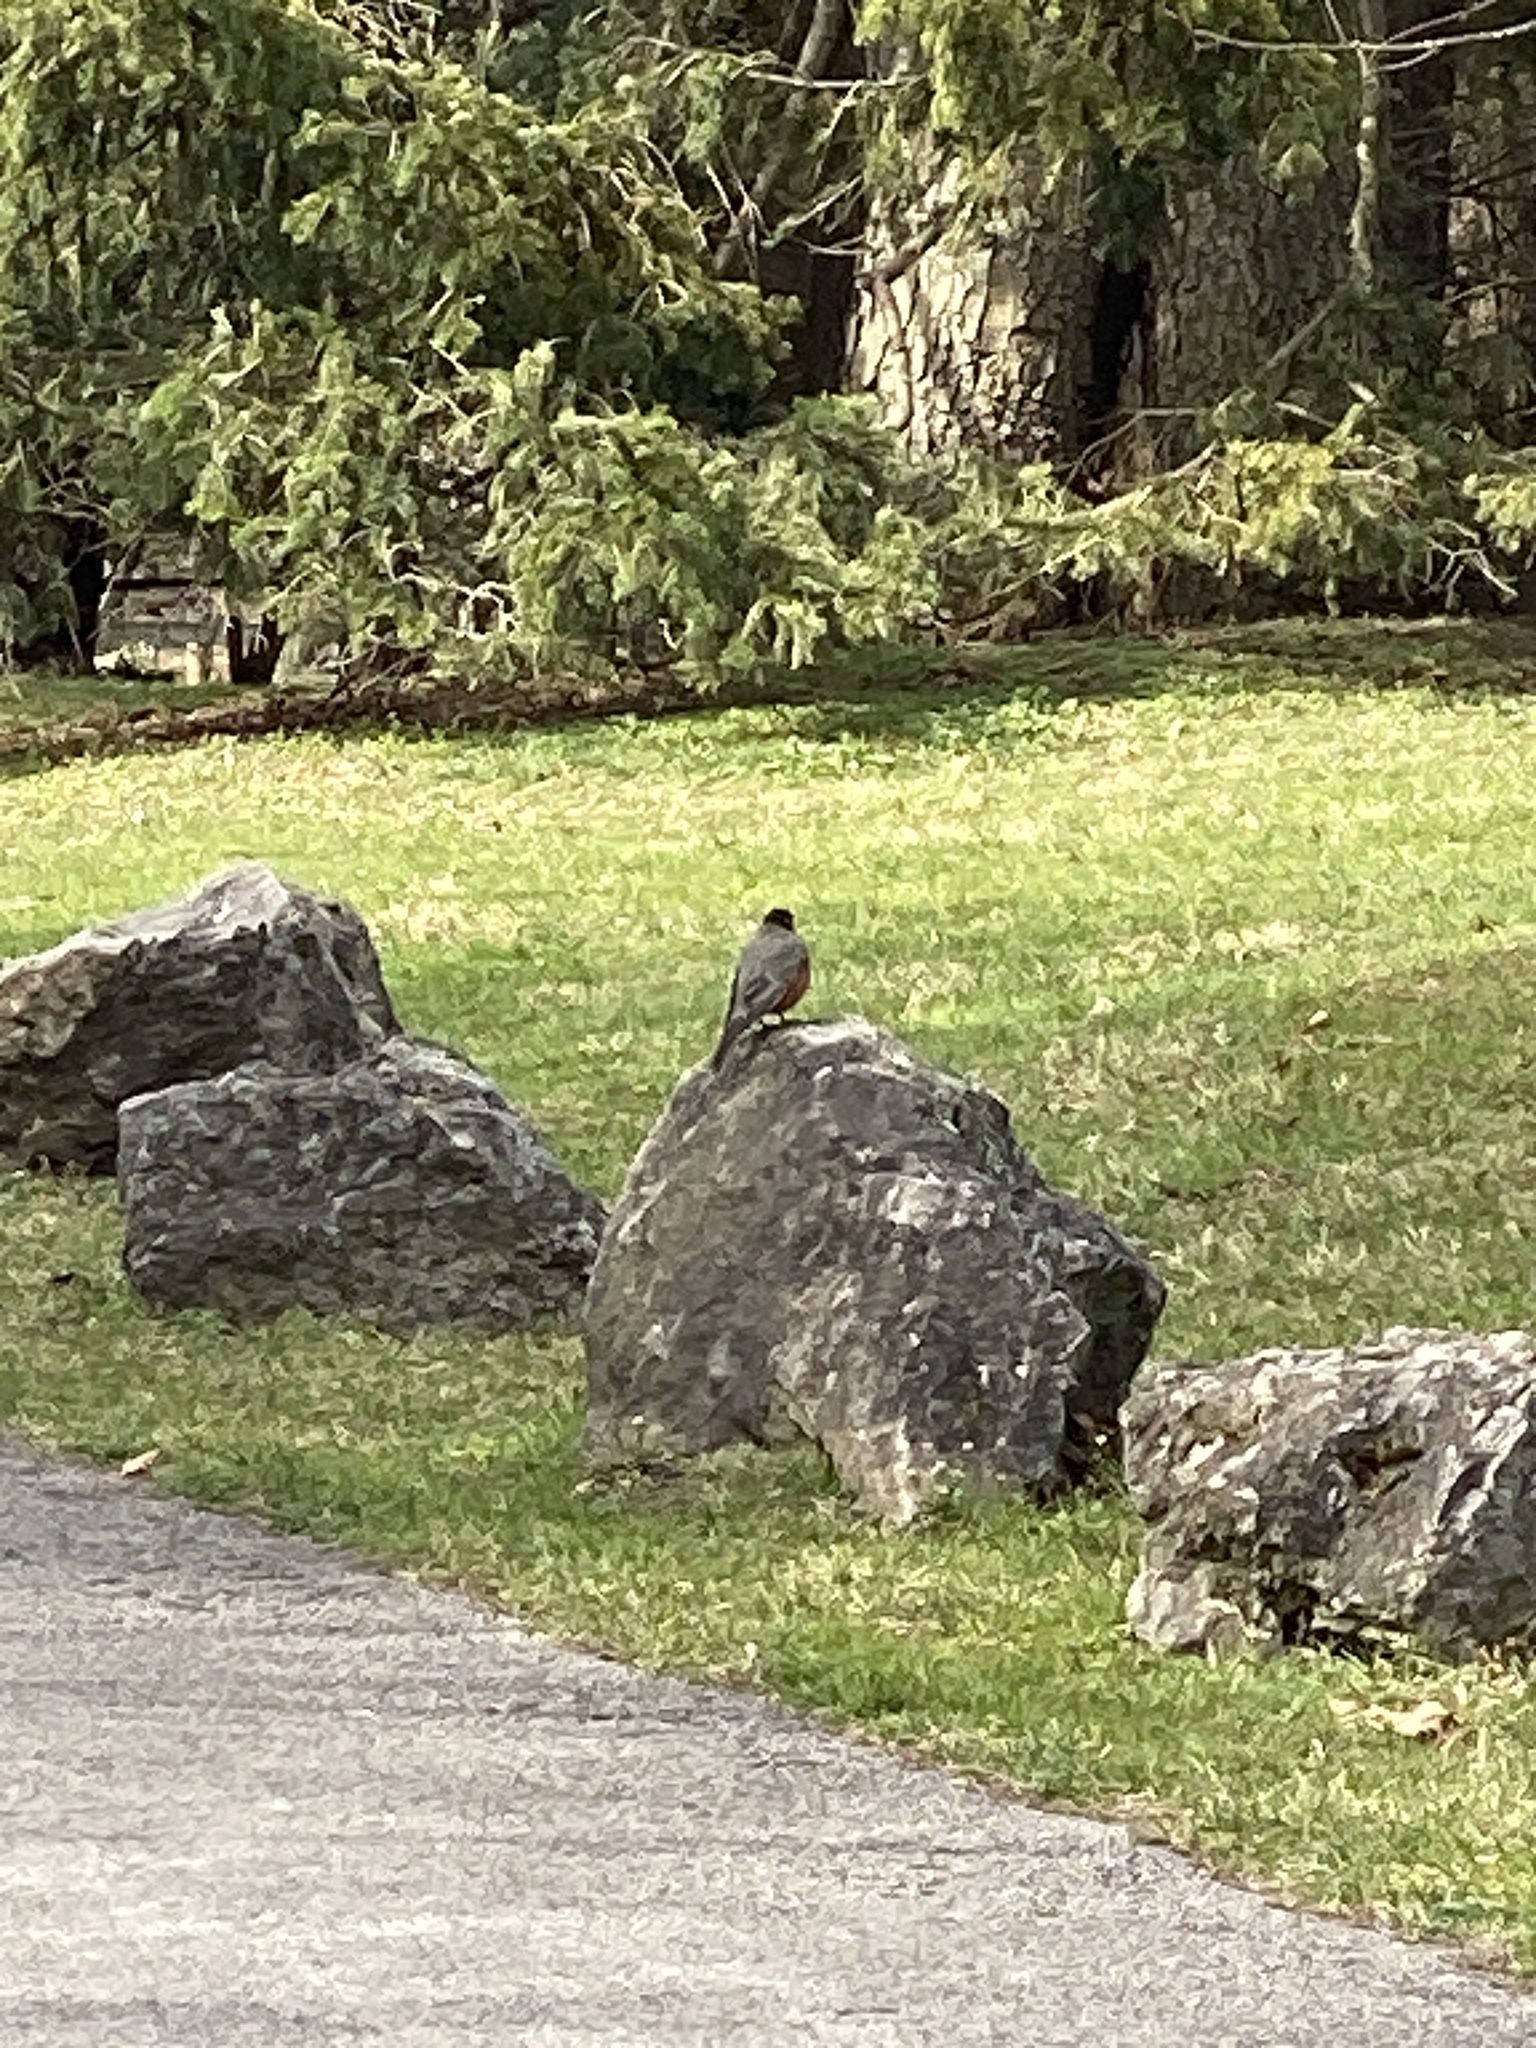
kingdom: Animalia
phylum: Chordata
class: Aves
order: Passeriformes
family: Turdidae
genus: Turdus
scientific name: Turdus migratorius
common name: American robin
